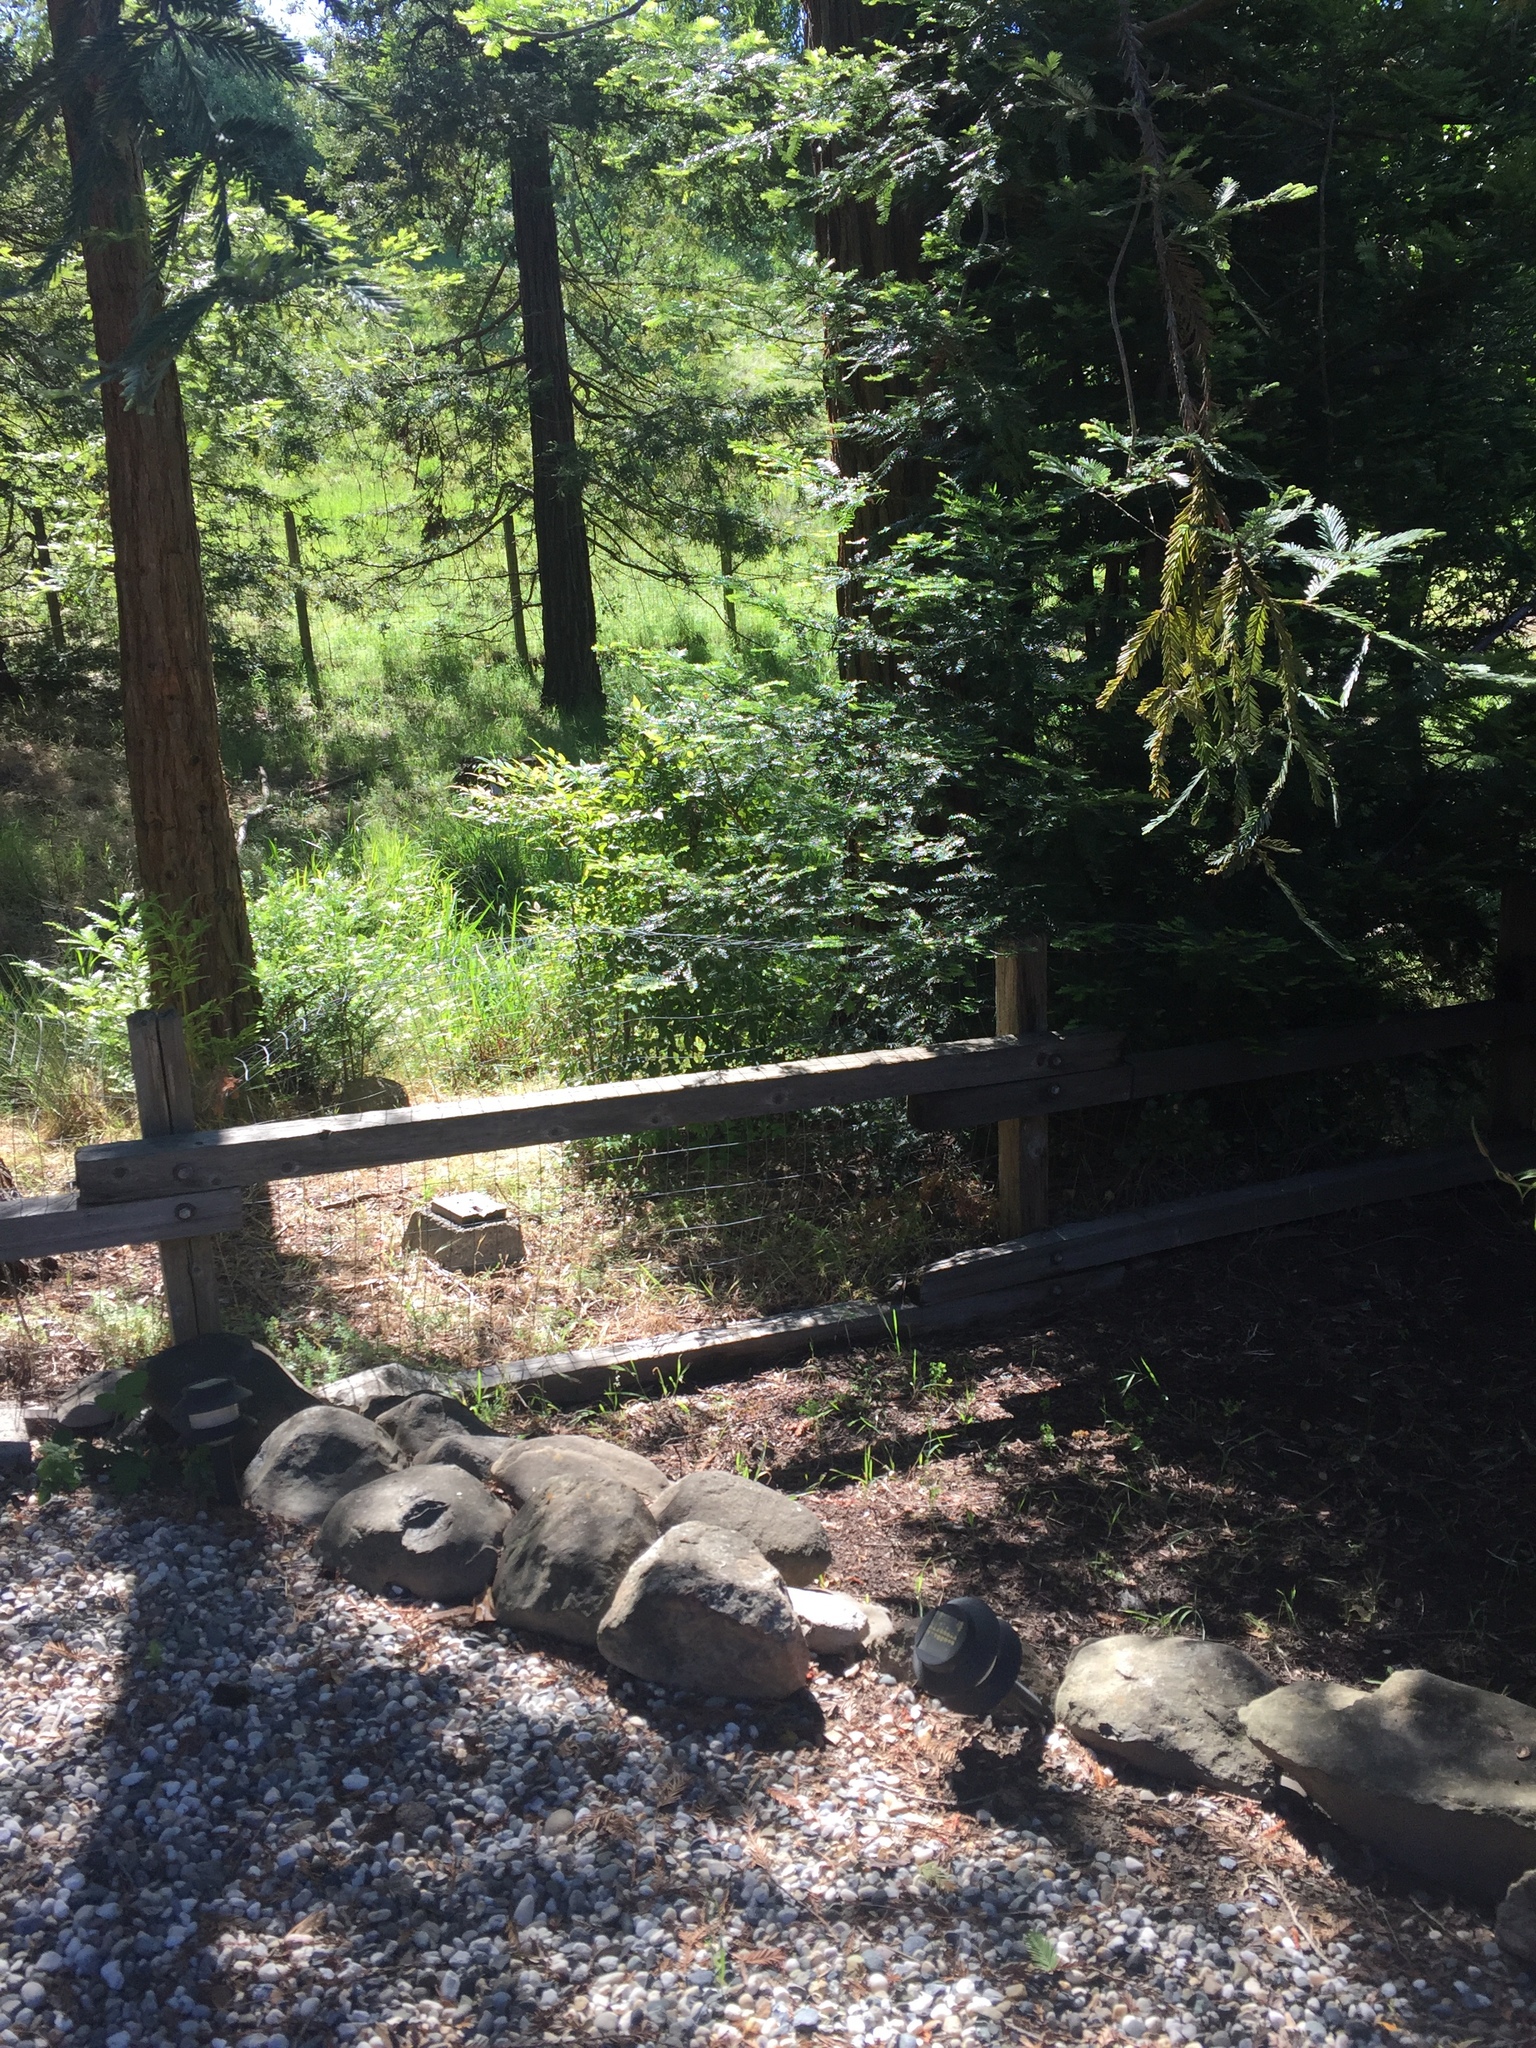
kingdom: Animalia
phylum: Chordata
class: Aves
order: Galliformes
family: Phasianidae
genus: Meleagris
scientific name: Meleagris gallopavo
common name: Wild turkey
